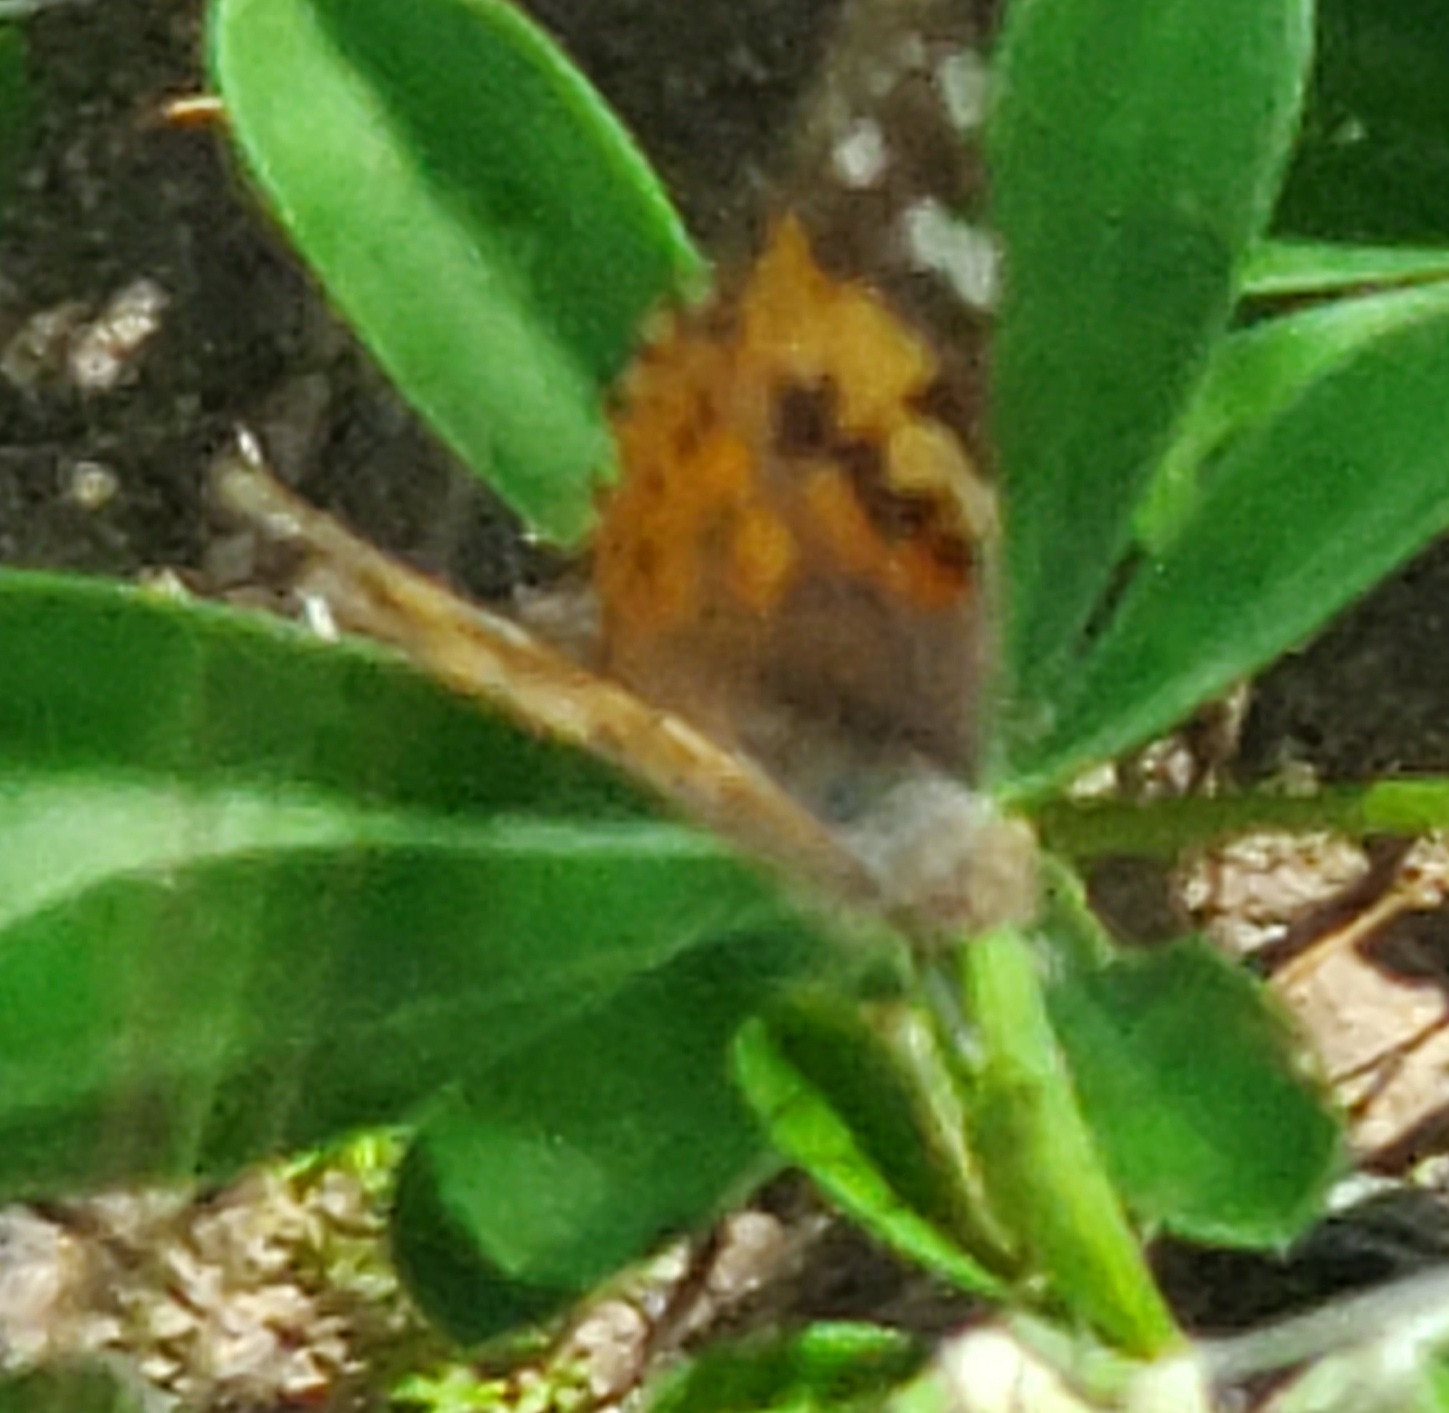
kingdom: Animalia
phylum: Arthropoda
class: Insecta
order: Lepidoptera
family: Nymphalidae
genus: Vanessa
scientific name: Vanessa cardui
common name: Painted lady
